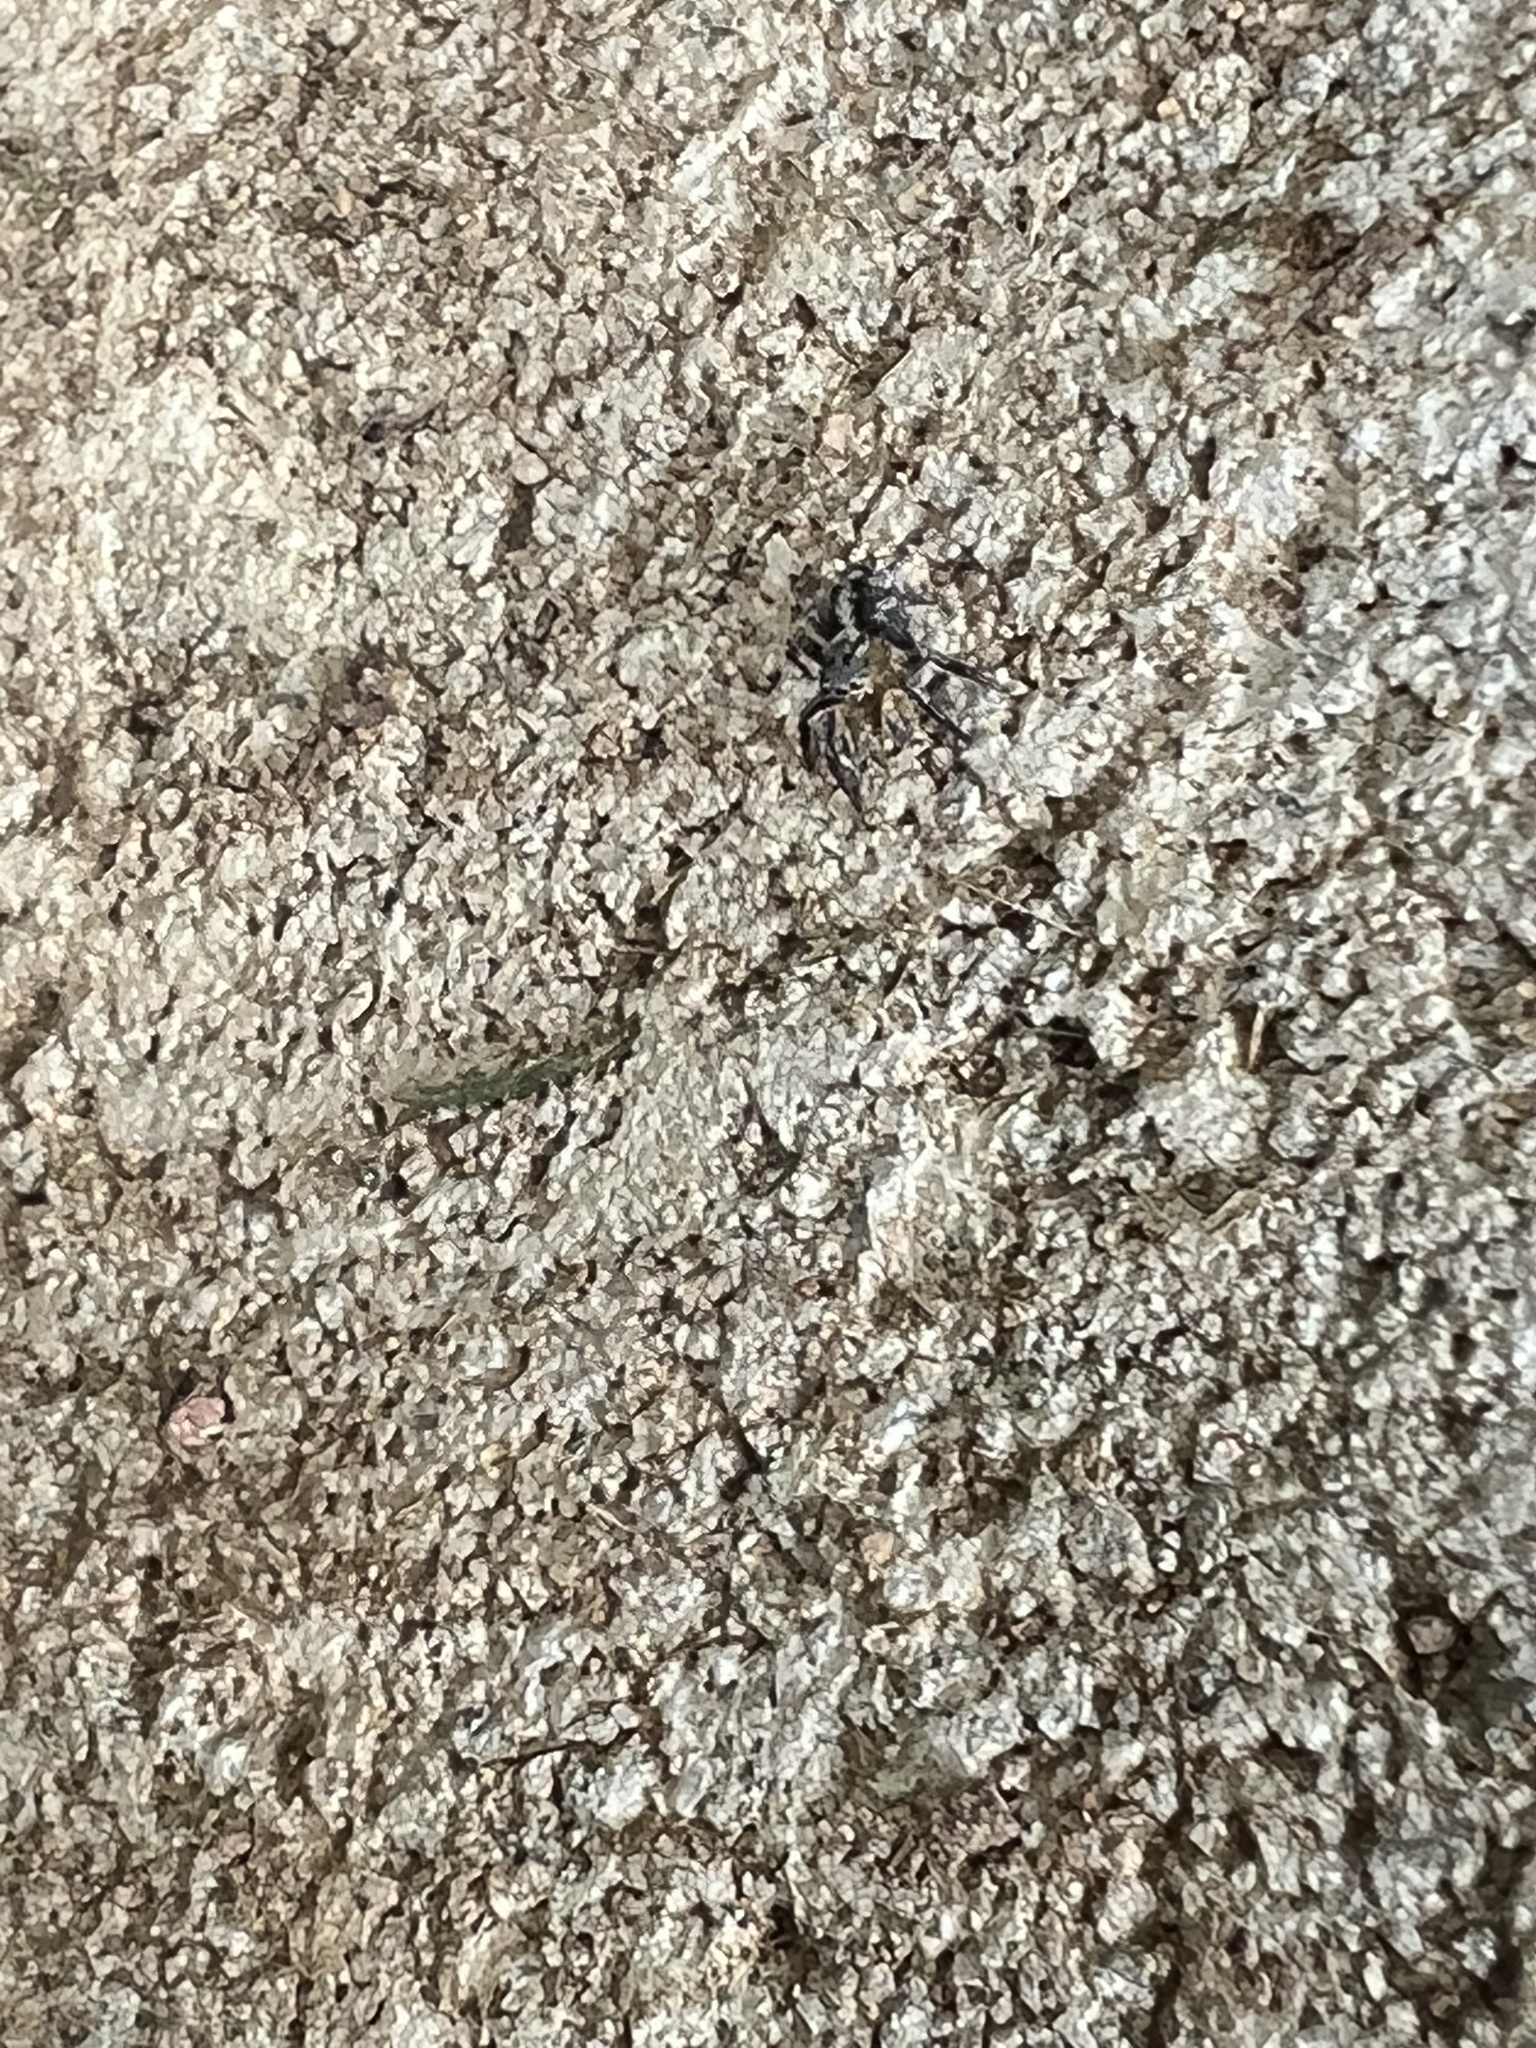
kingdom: Animalia
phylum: Arthropoda
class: Arachnida
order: Araneae
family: Salticidae
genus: Naphrys
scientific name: Naphrys pulex
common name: Flea jumping spider
